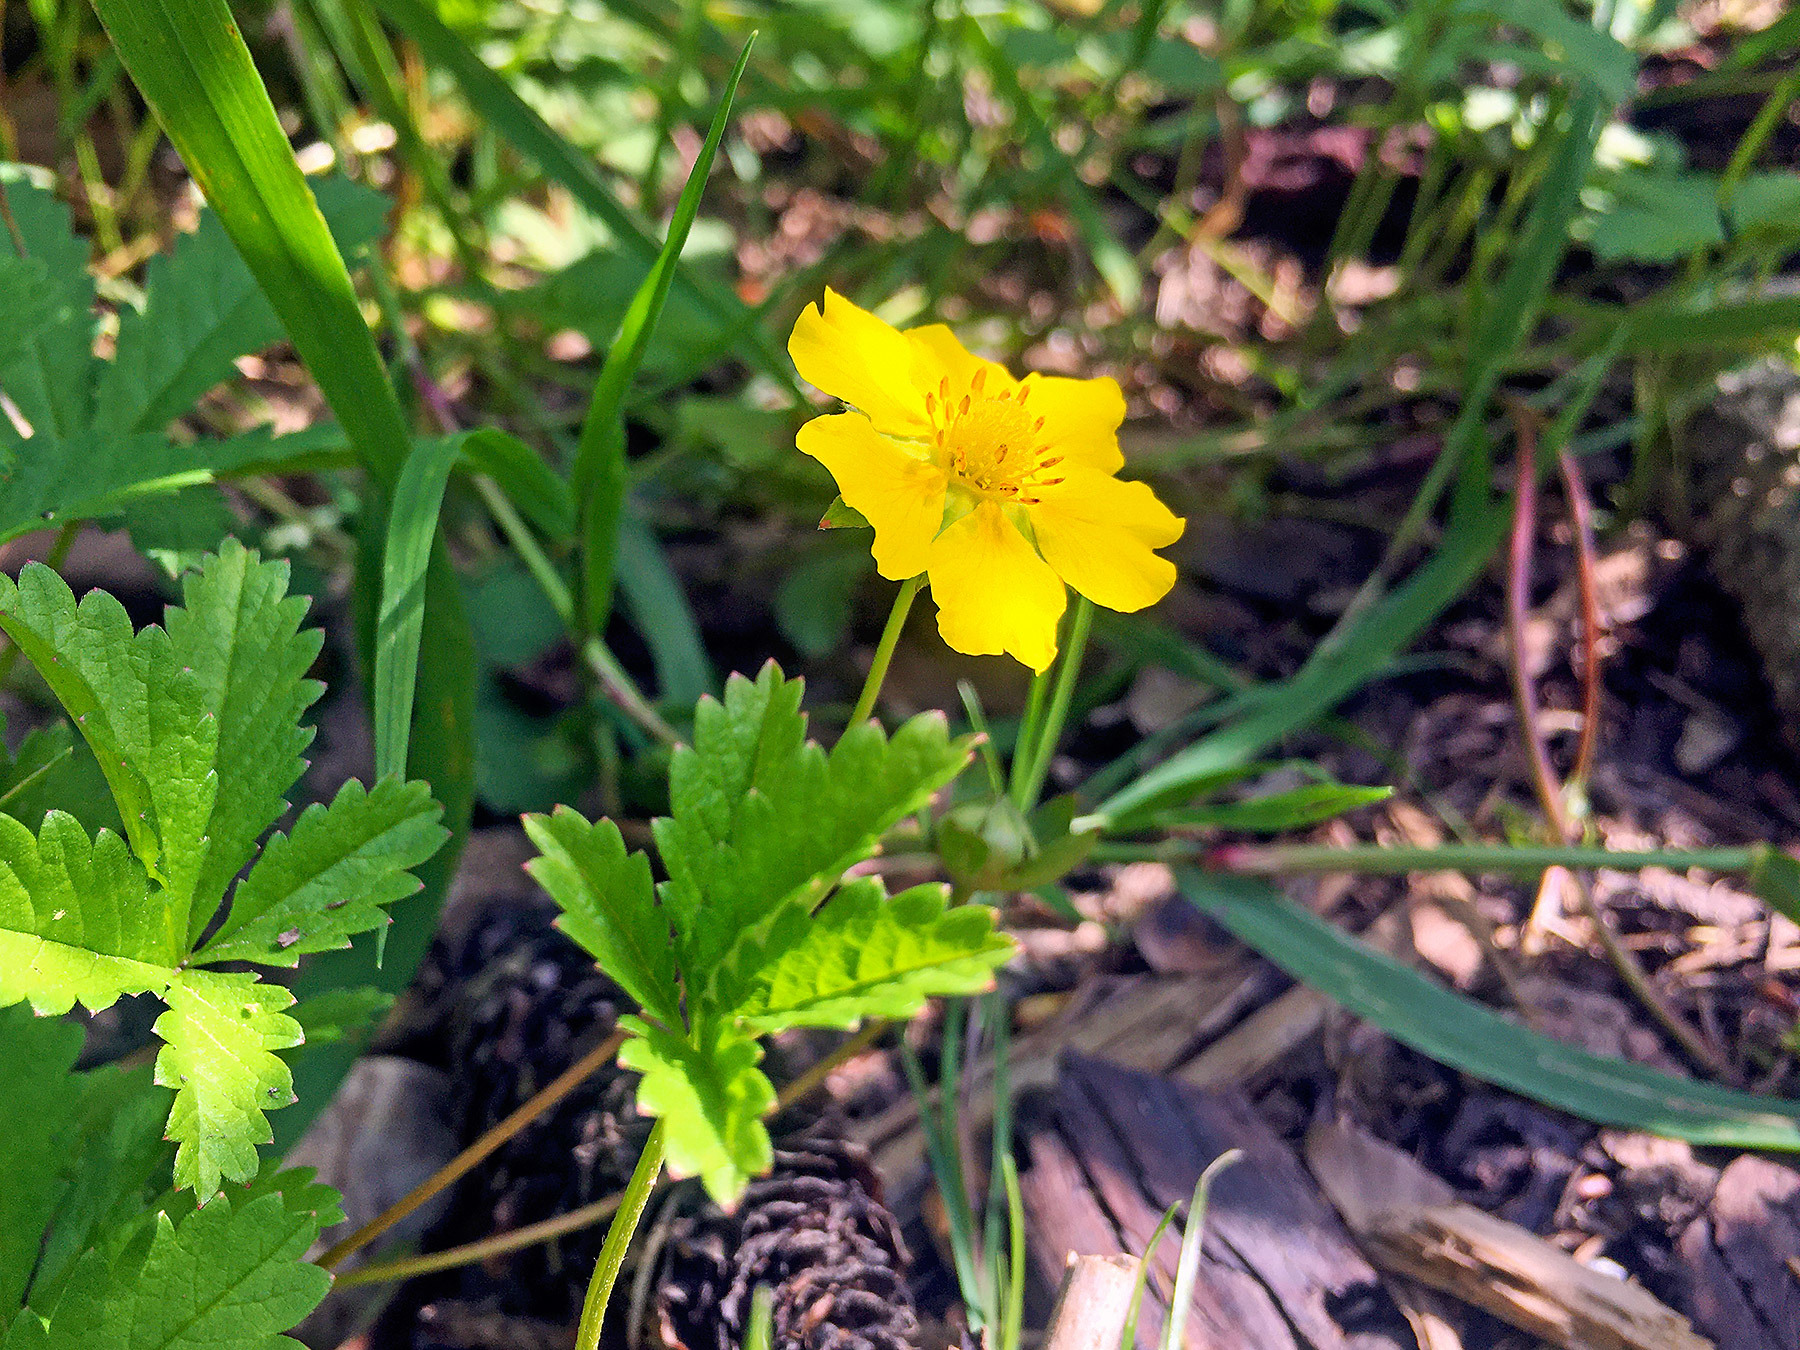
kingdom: Plantae
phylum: Tracheophyta
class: Magnoliopsida
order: Rosales
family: Rosaceae
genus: Potentilla
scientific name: Potentilla reptans
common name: Creeping cinquefoil
